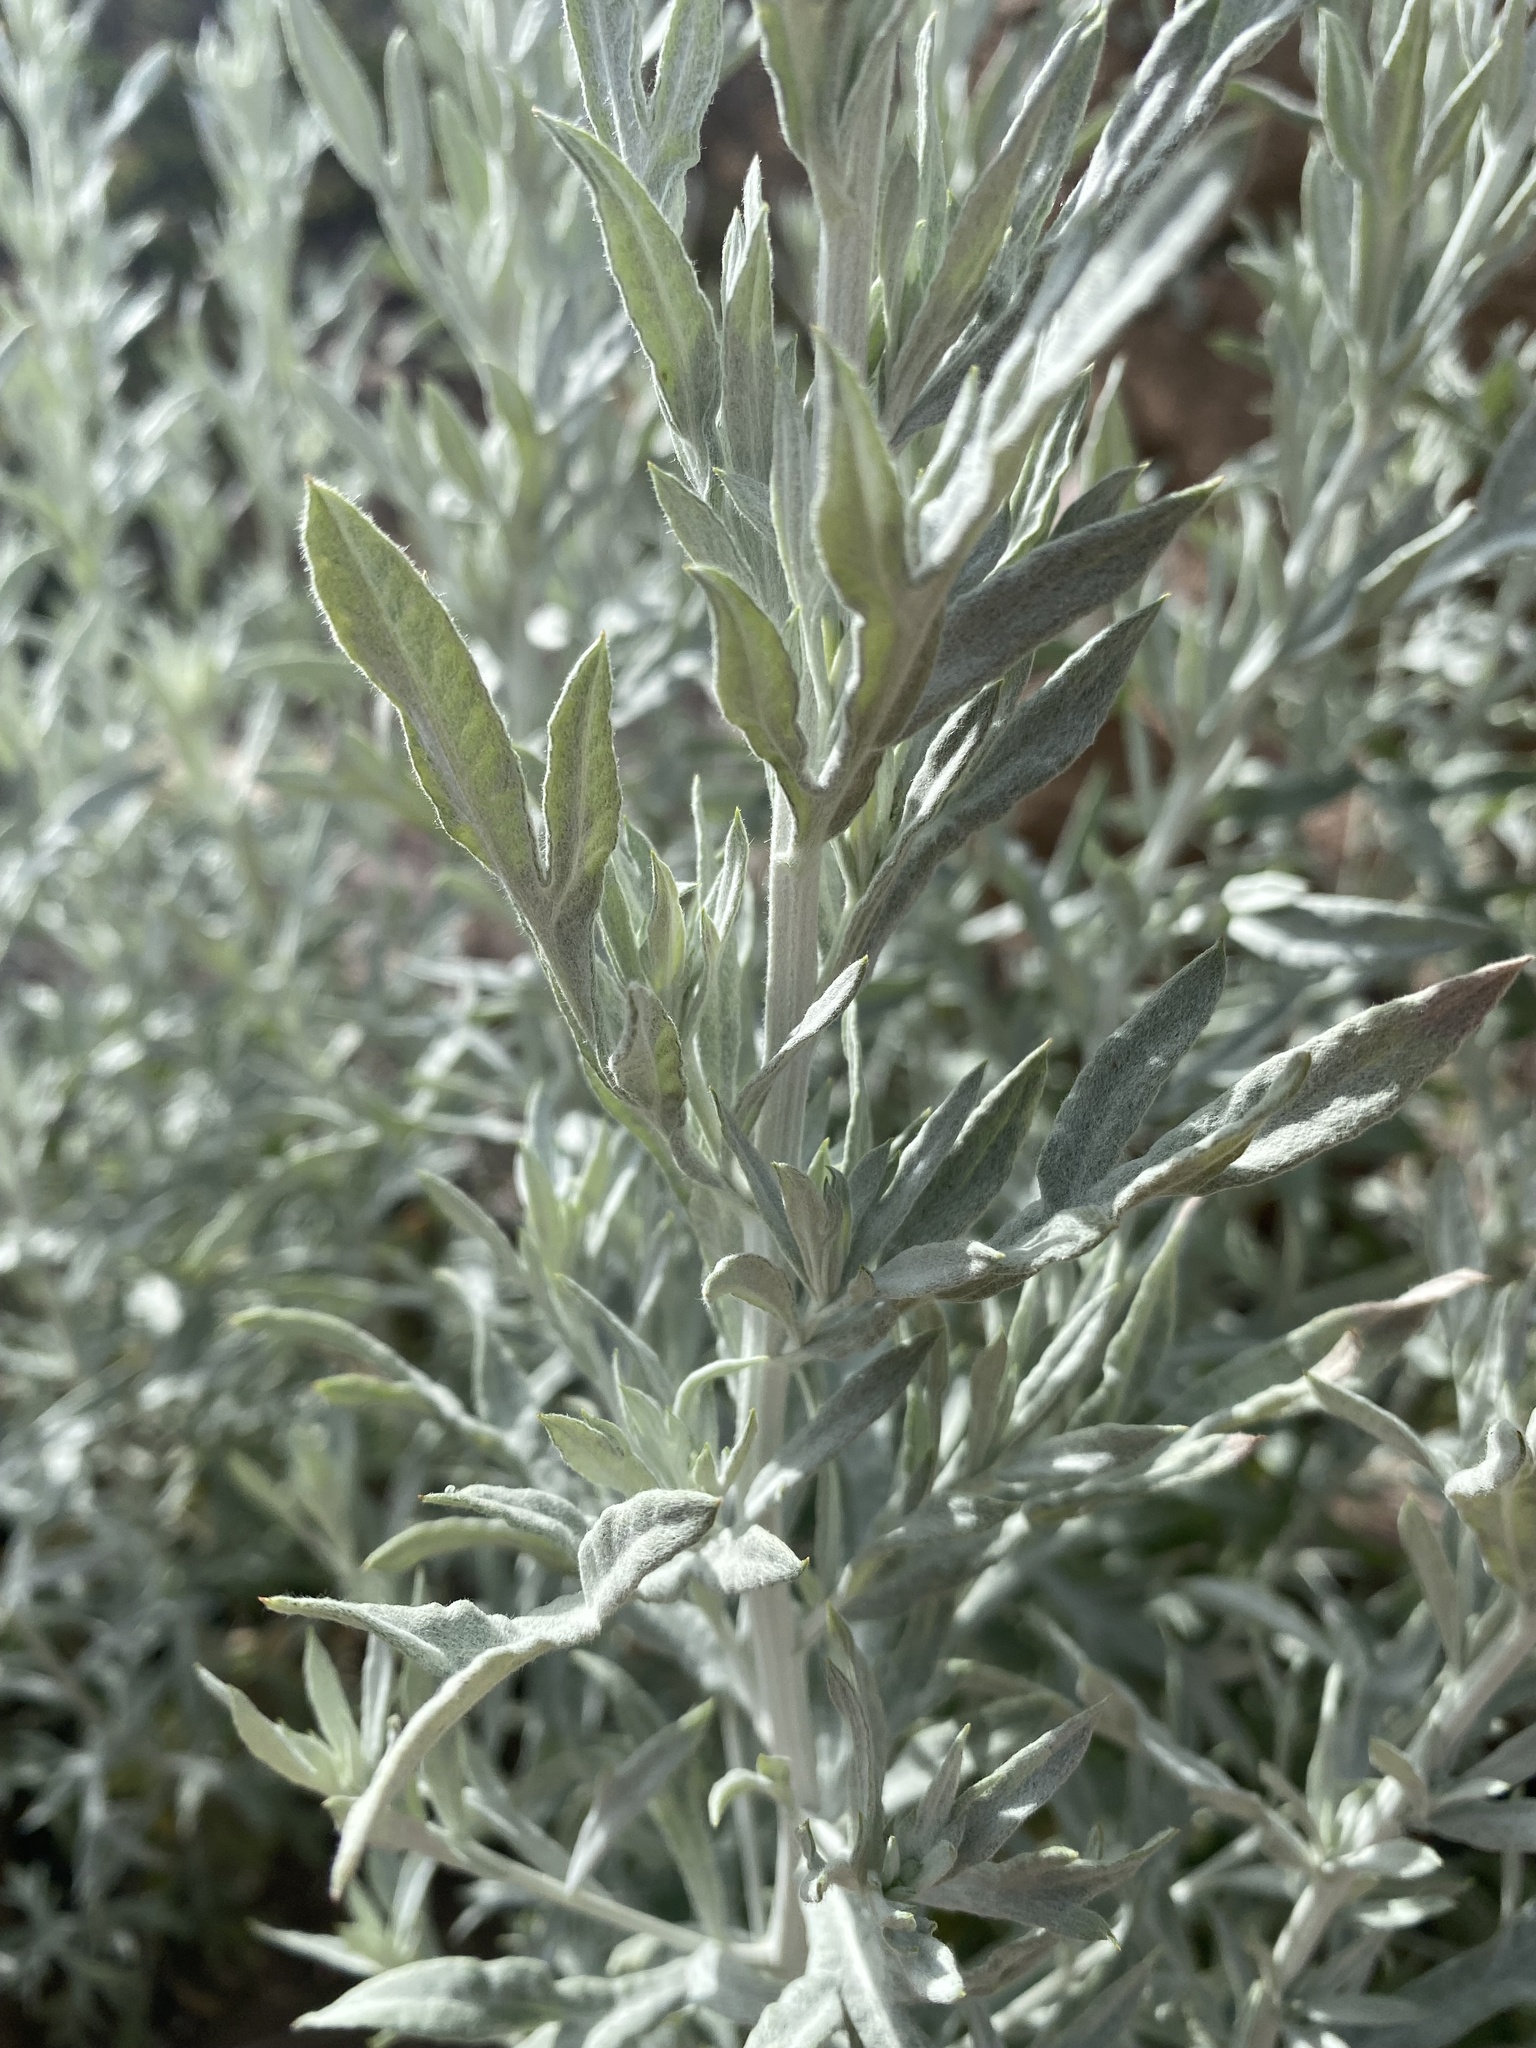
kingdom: Plantae
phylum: Tracheophyta
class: Magnoliopsida
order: Asterales
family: Asteraceae
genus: Artemisia
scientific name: Artemisia ludoviciana
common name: Western mugwort
